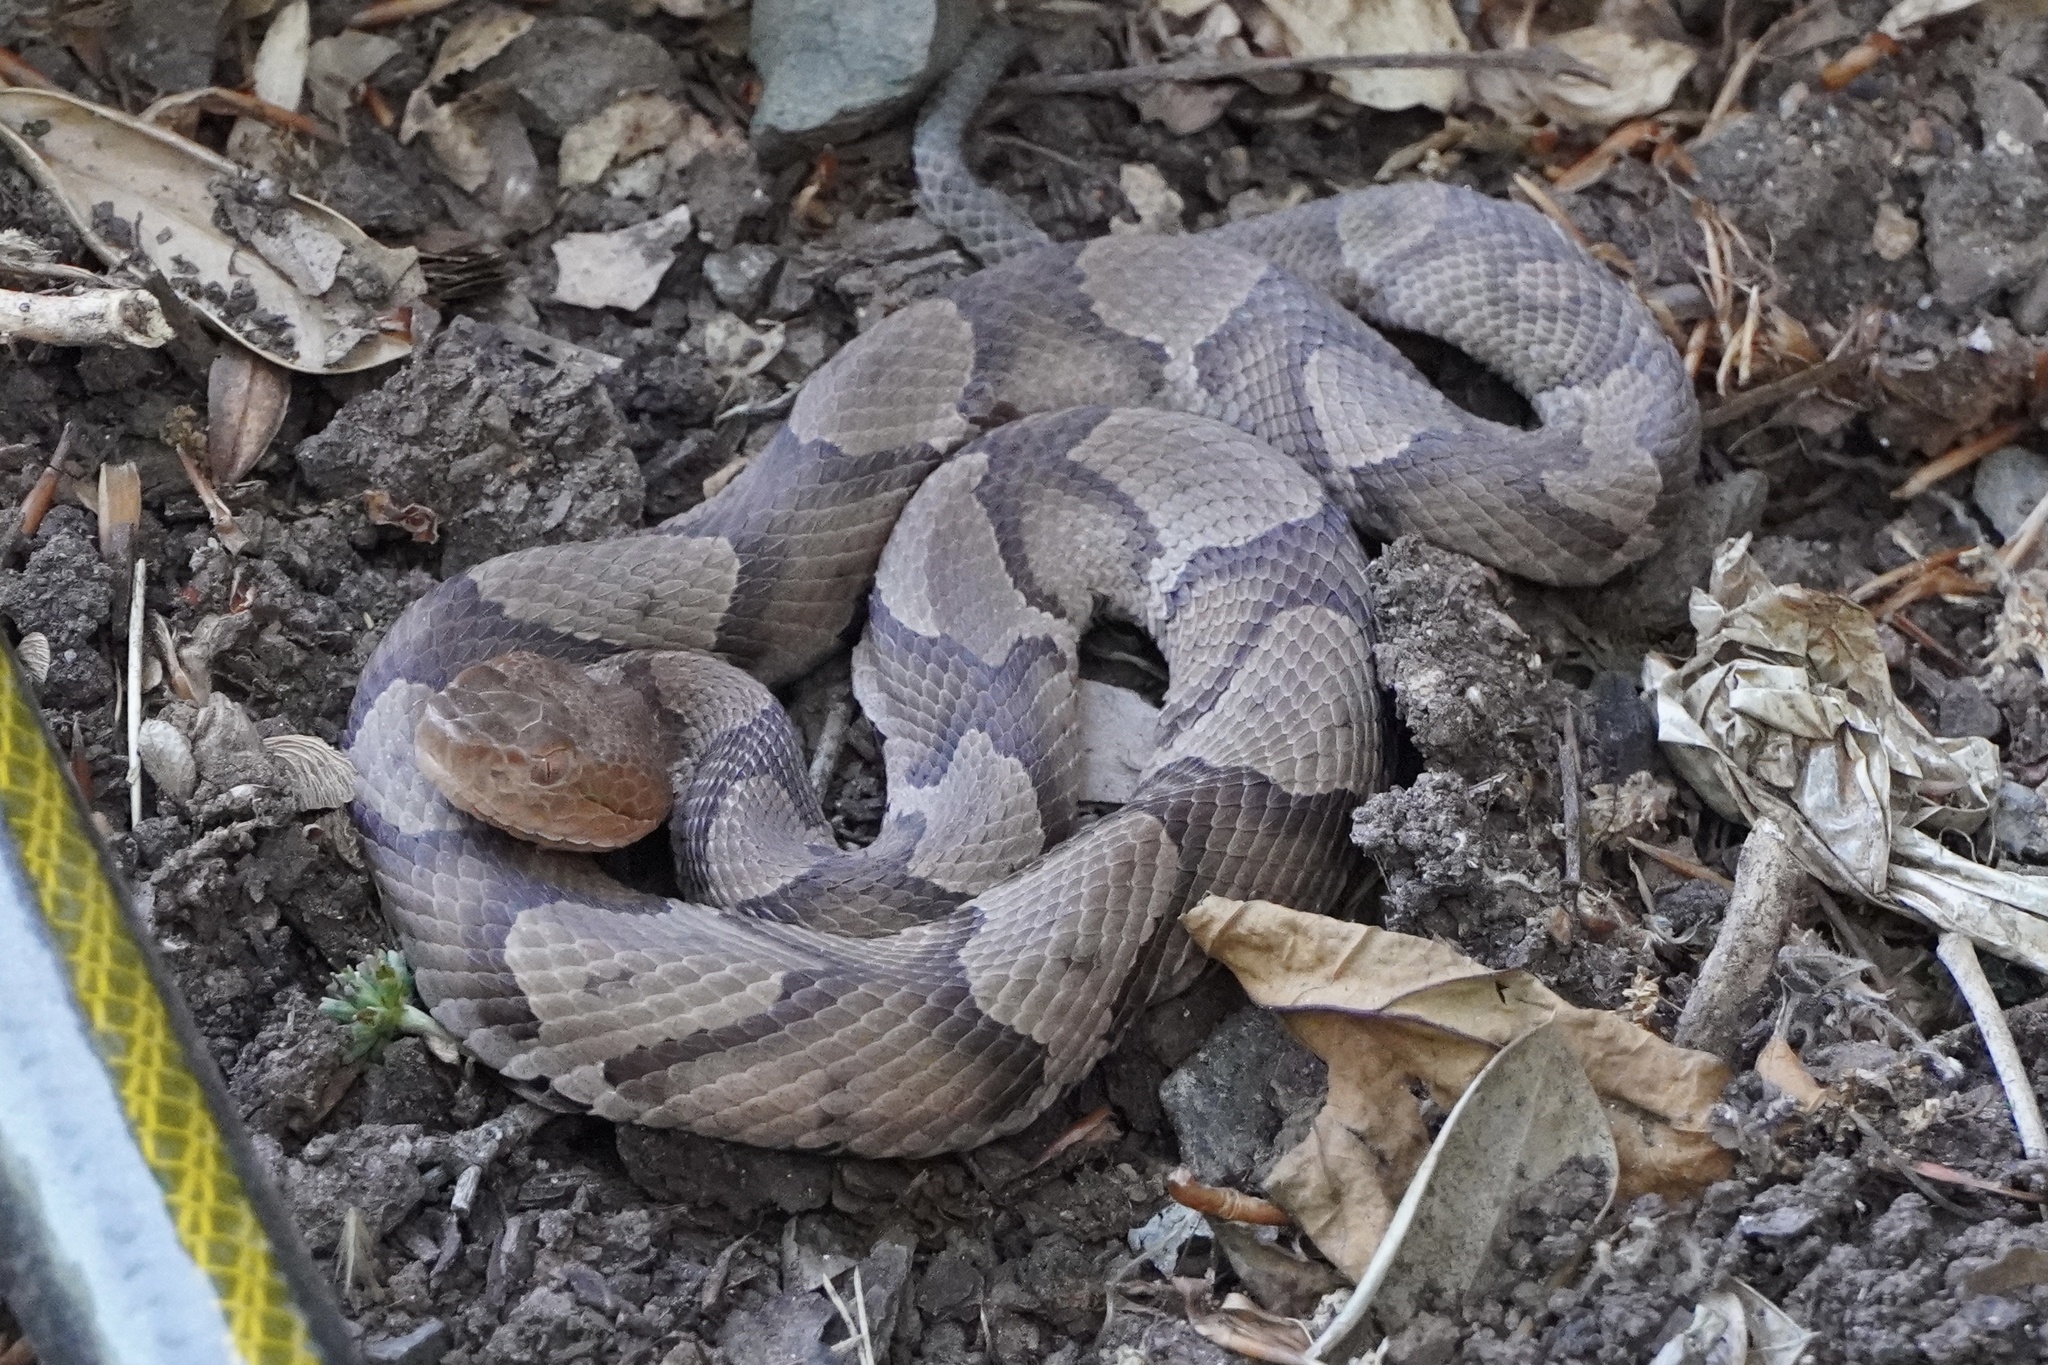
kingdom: Animalia
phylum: Chordata
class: Squamata
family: Viperidae
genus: Agkistrodon
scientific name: Agkistrodon contortrix
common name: Northern copperhead
